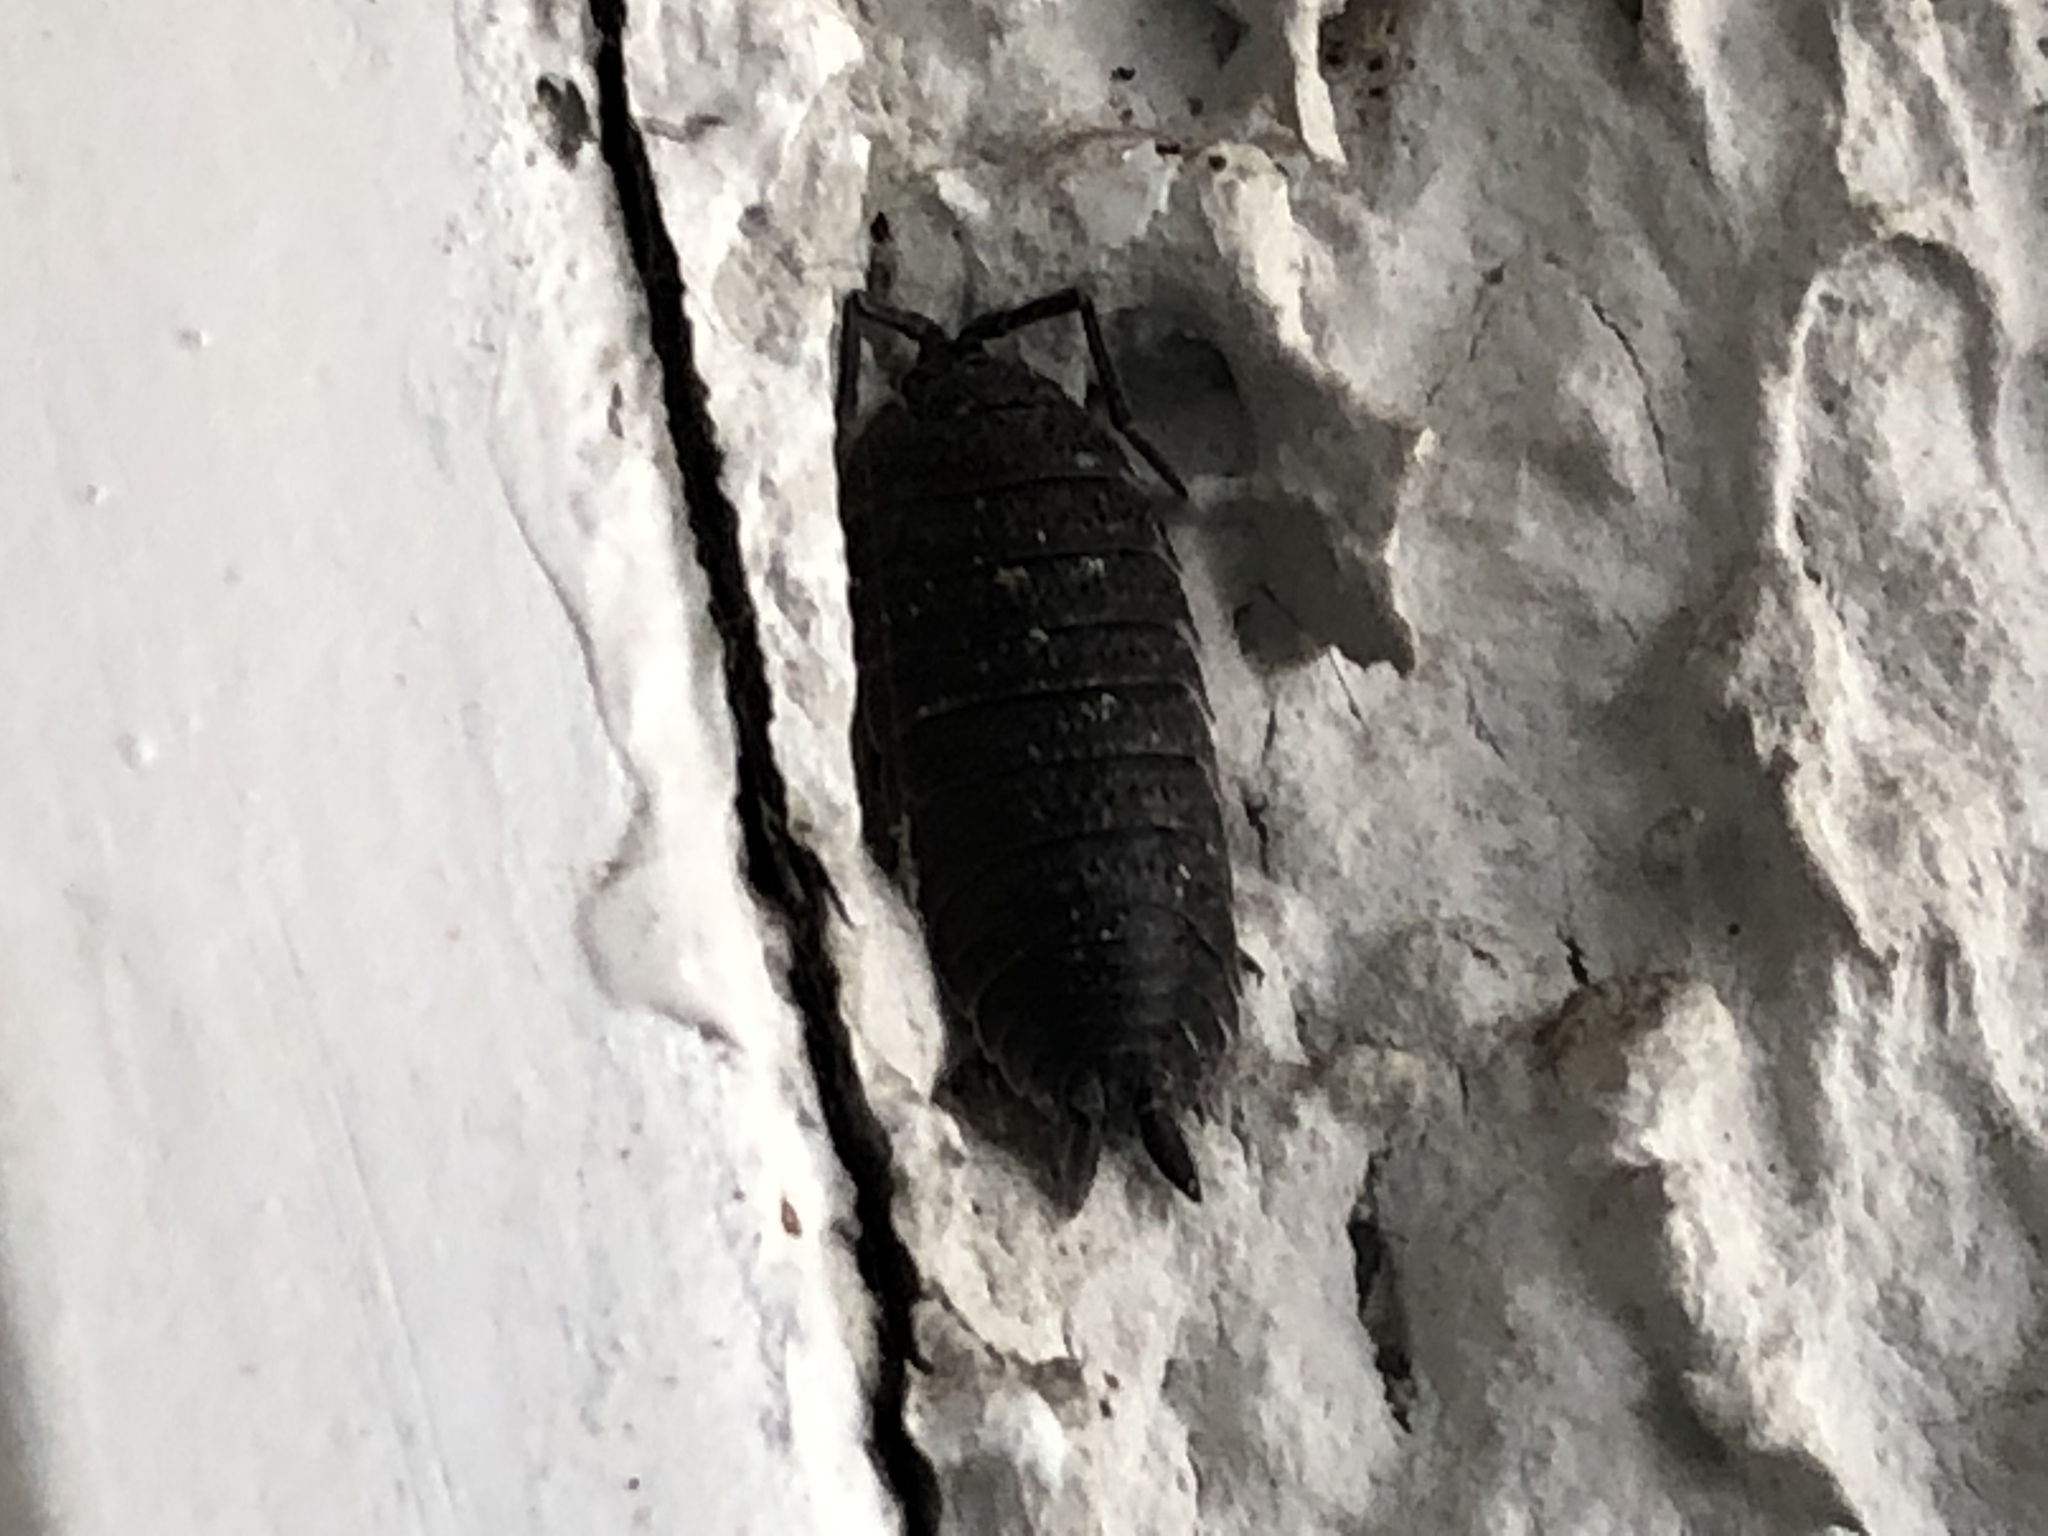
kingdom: Animalia
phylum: Arthropoda
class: Malacostraca
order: Isopoda
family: Porcellionidae
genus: Porcellio
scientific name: Porcellio scaber
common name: Common rough woodlouse
